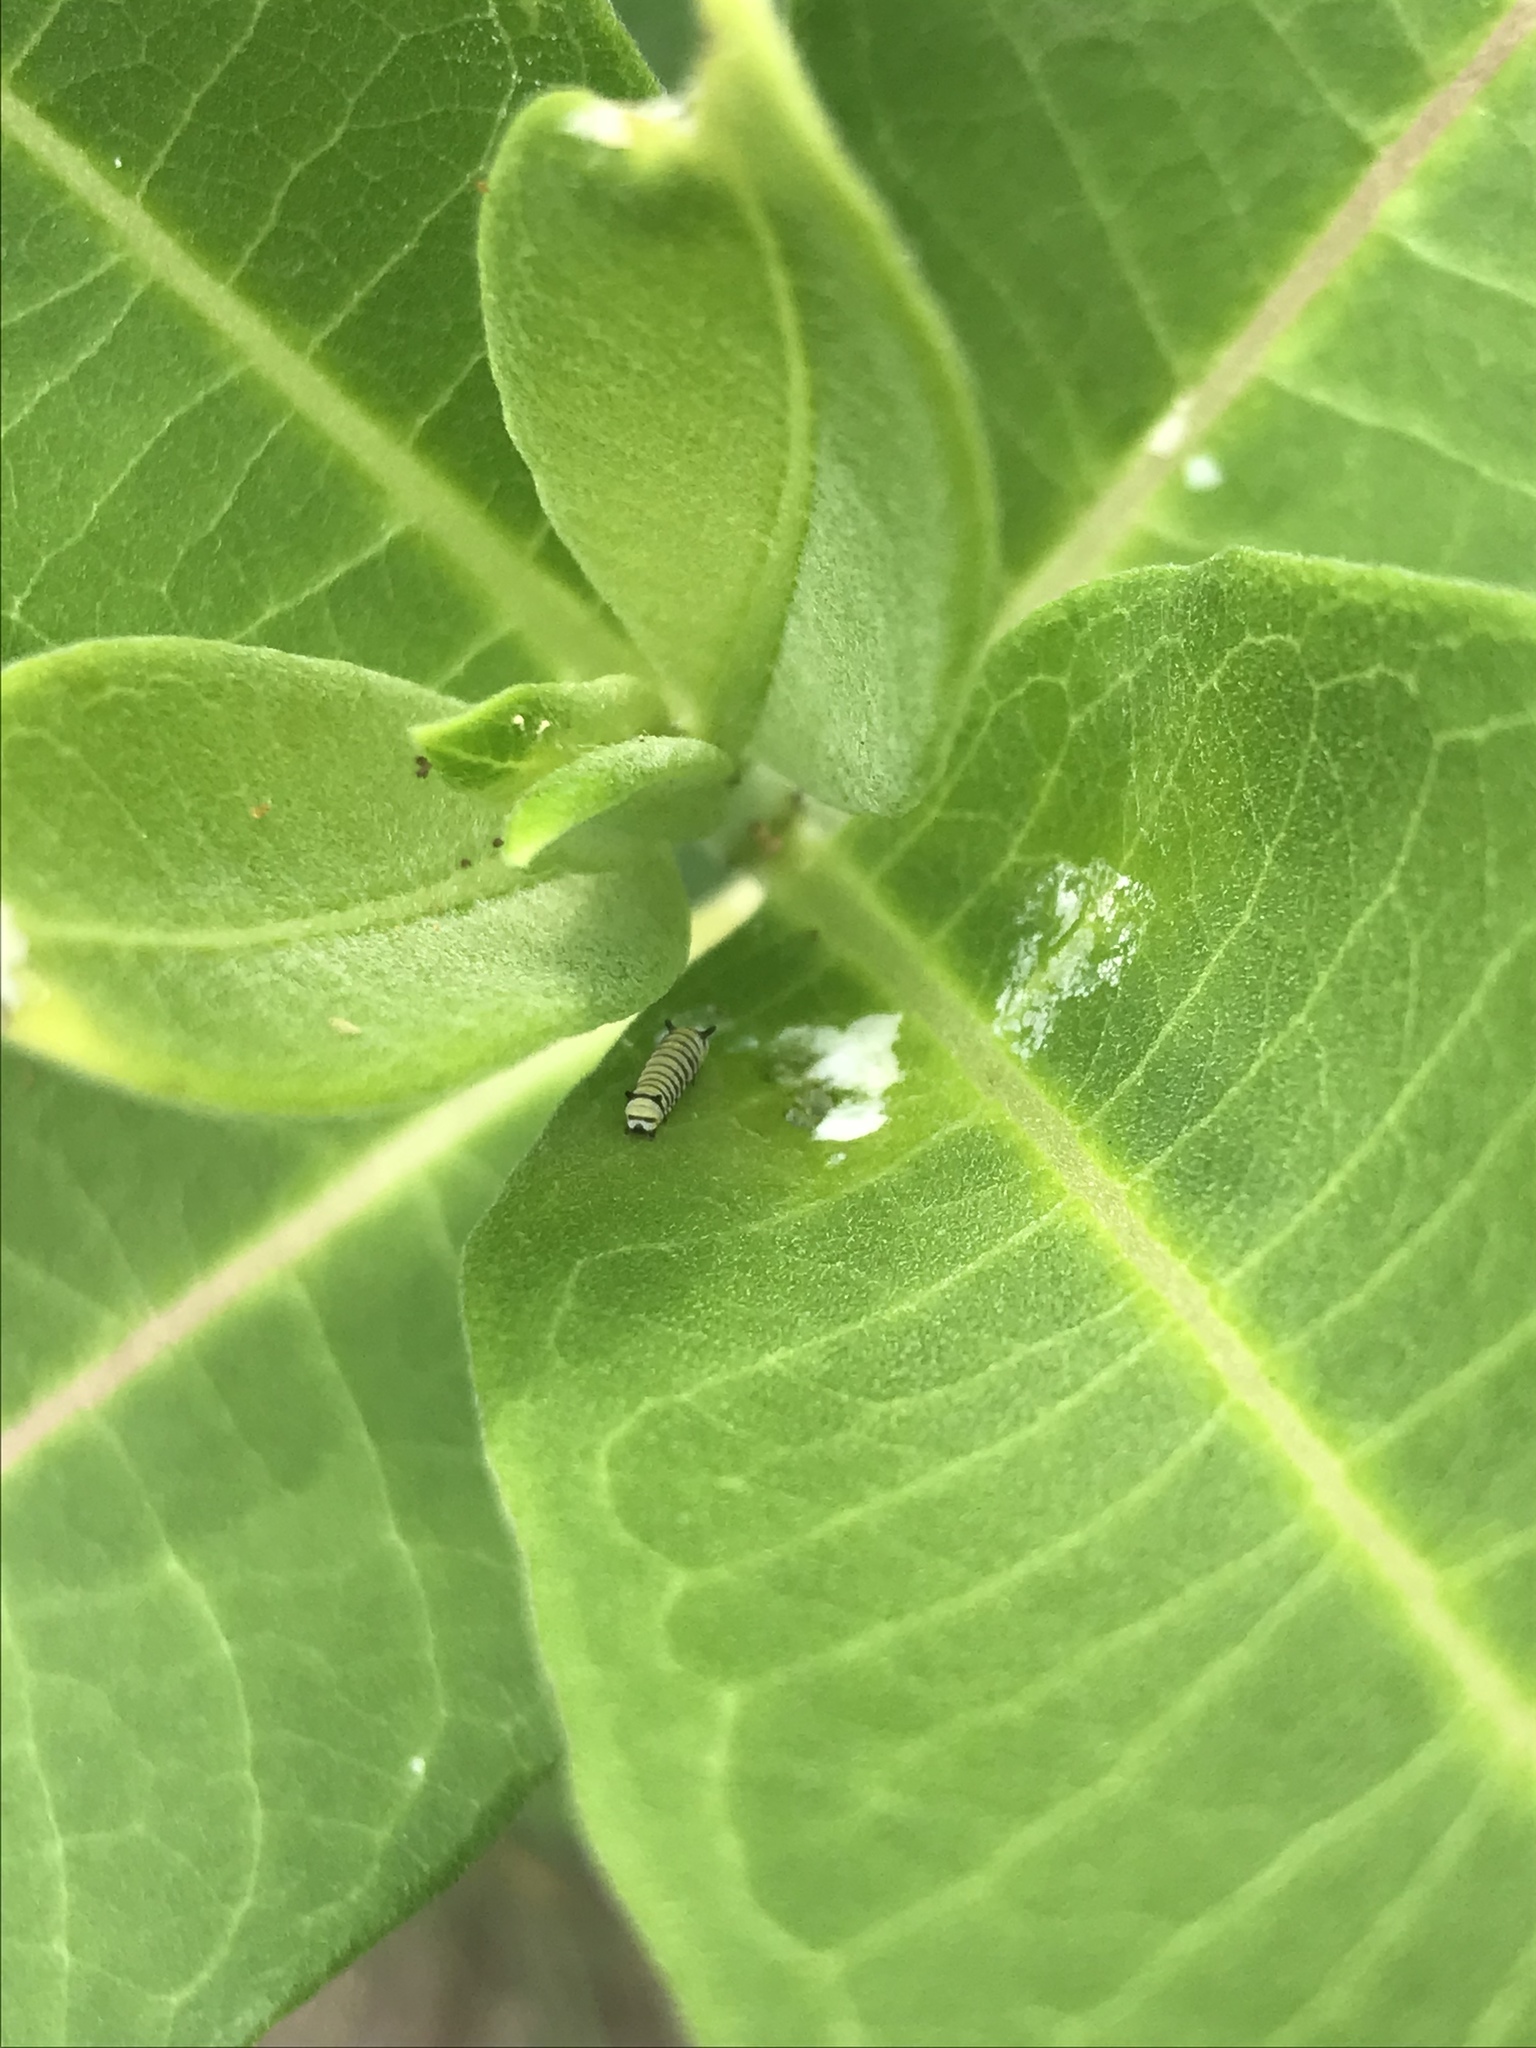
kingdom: Animalia
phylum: Arthropoda
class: Insecta
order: Lepidoptera
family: Nymphalidae
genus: Danaus
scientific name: Danaus plexippus
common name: Monarch
